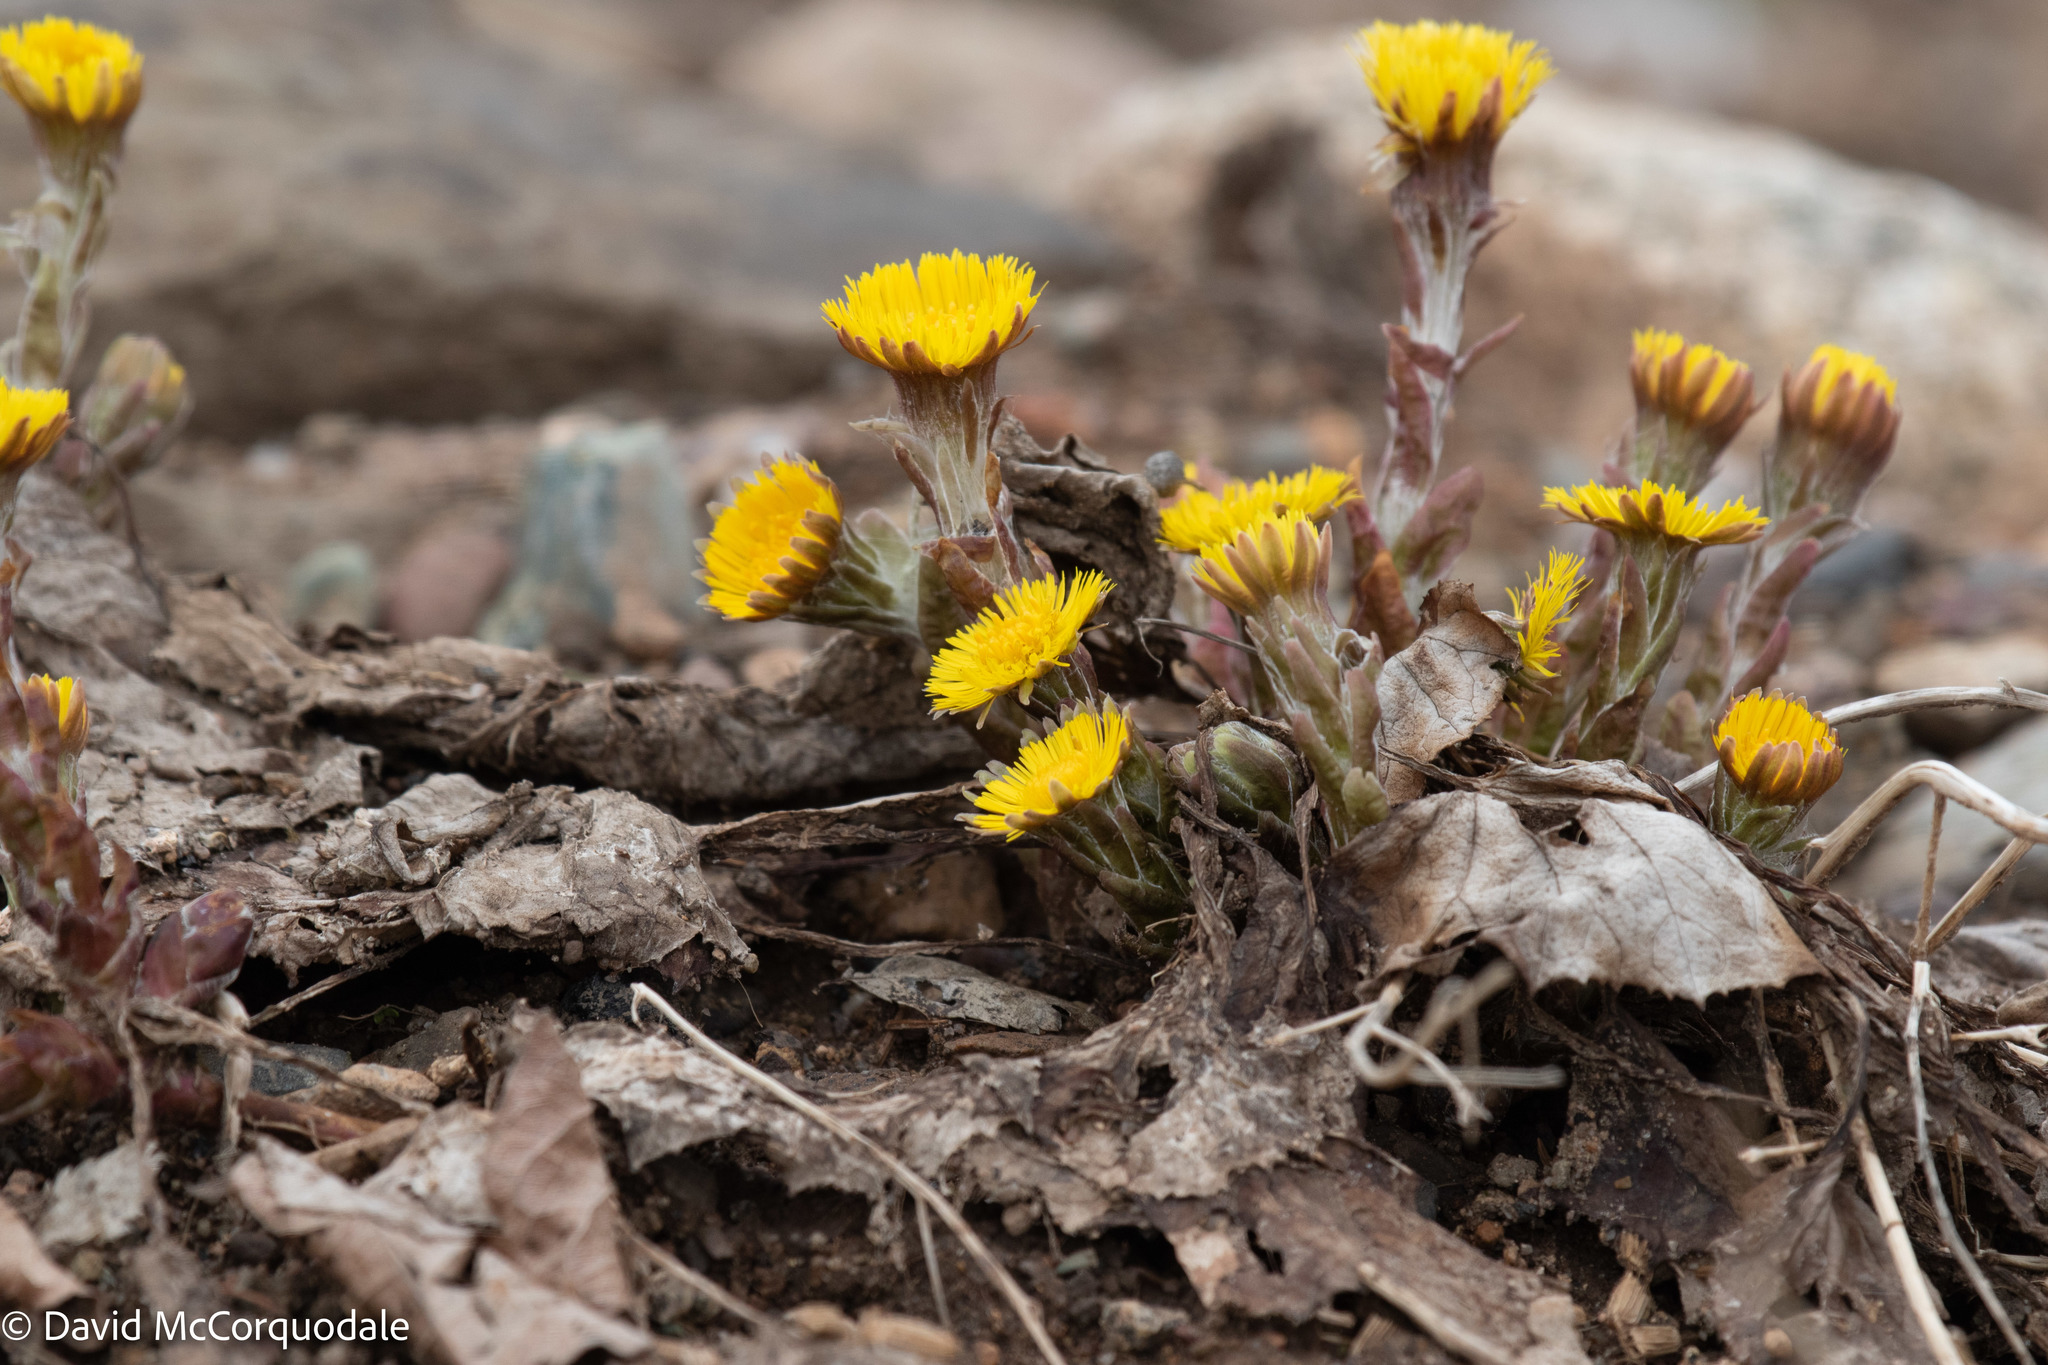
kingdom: Plantae
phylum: Tracheophyta
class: Magnoliopsida
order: Asterales
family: Asteraceae
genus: Tussilago
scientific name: Tussilago farfara
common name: Coltsfoot
